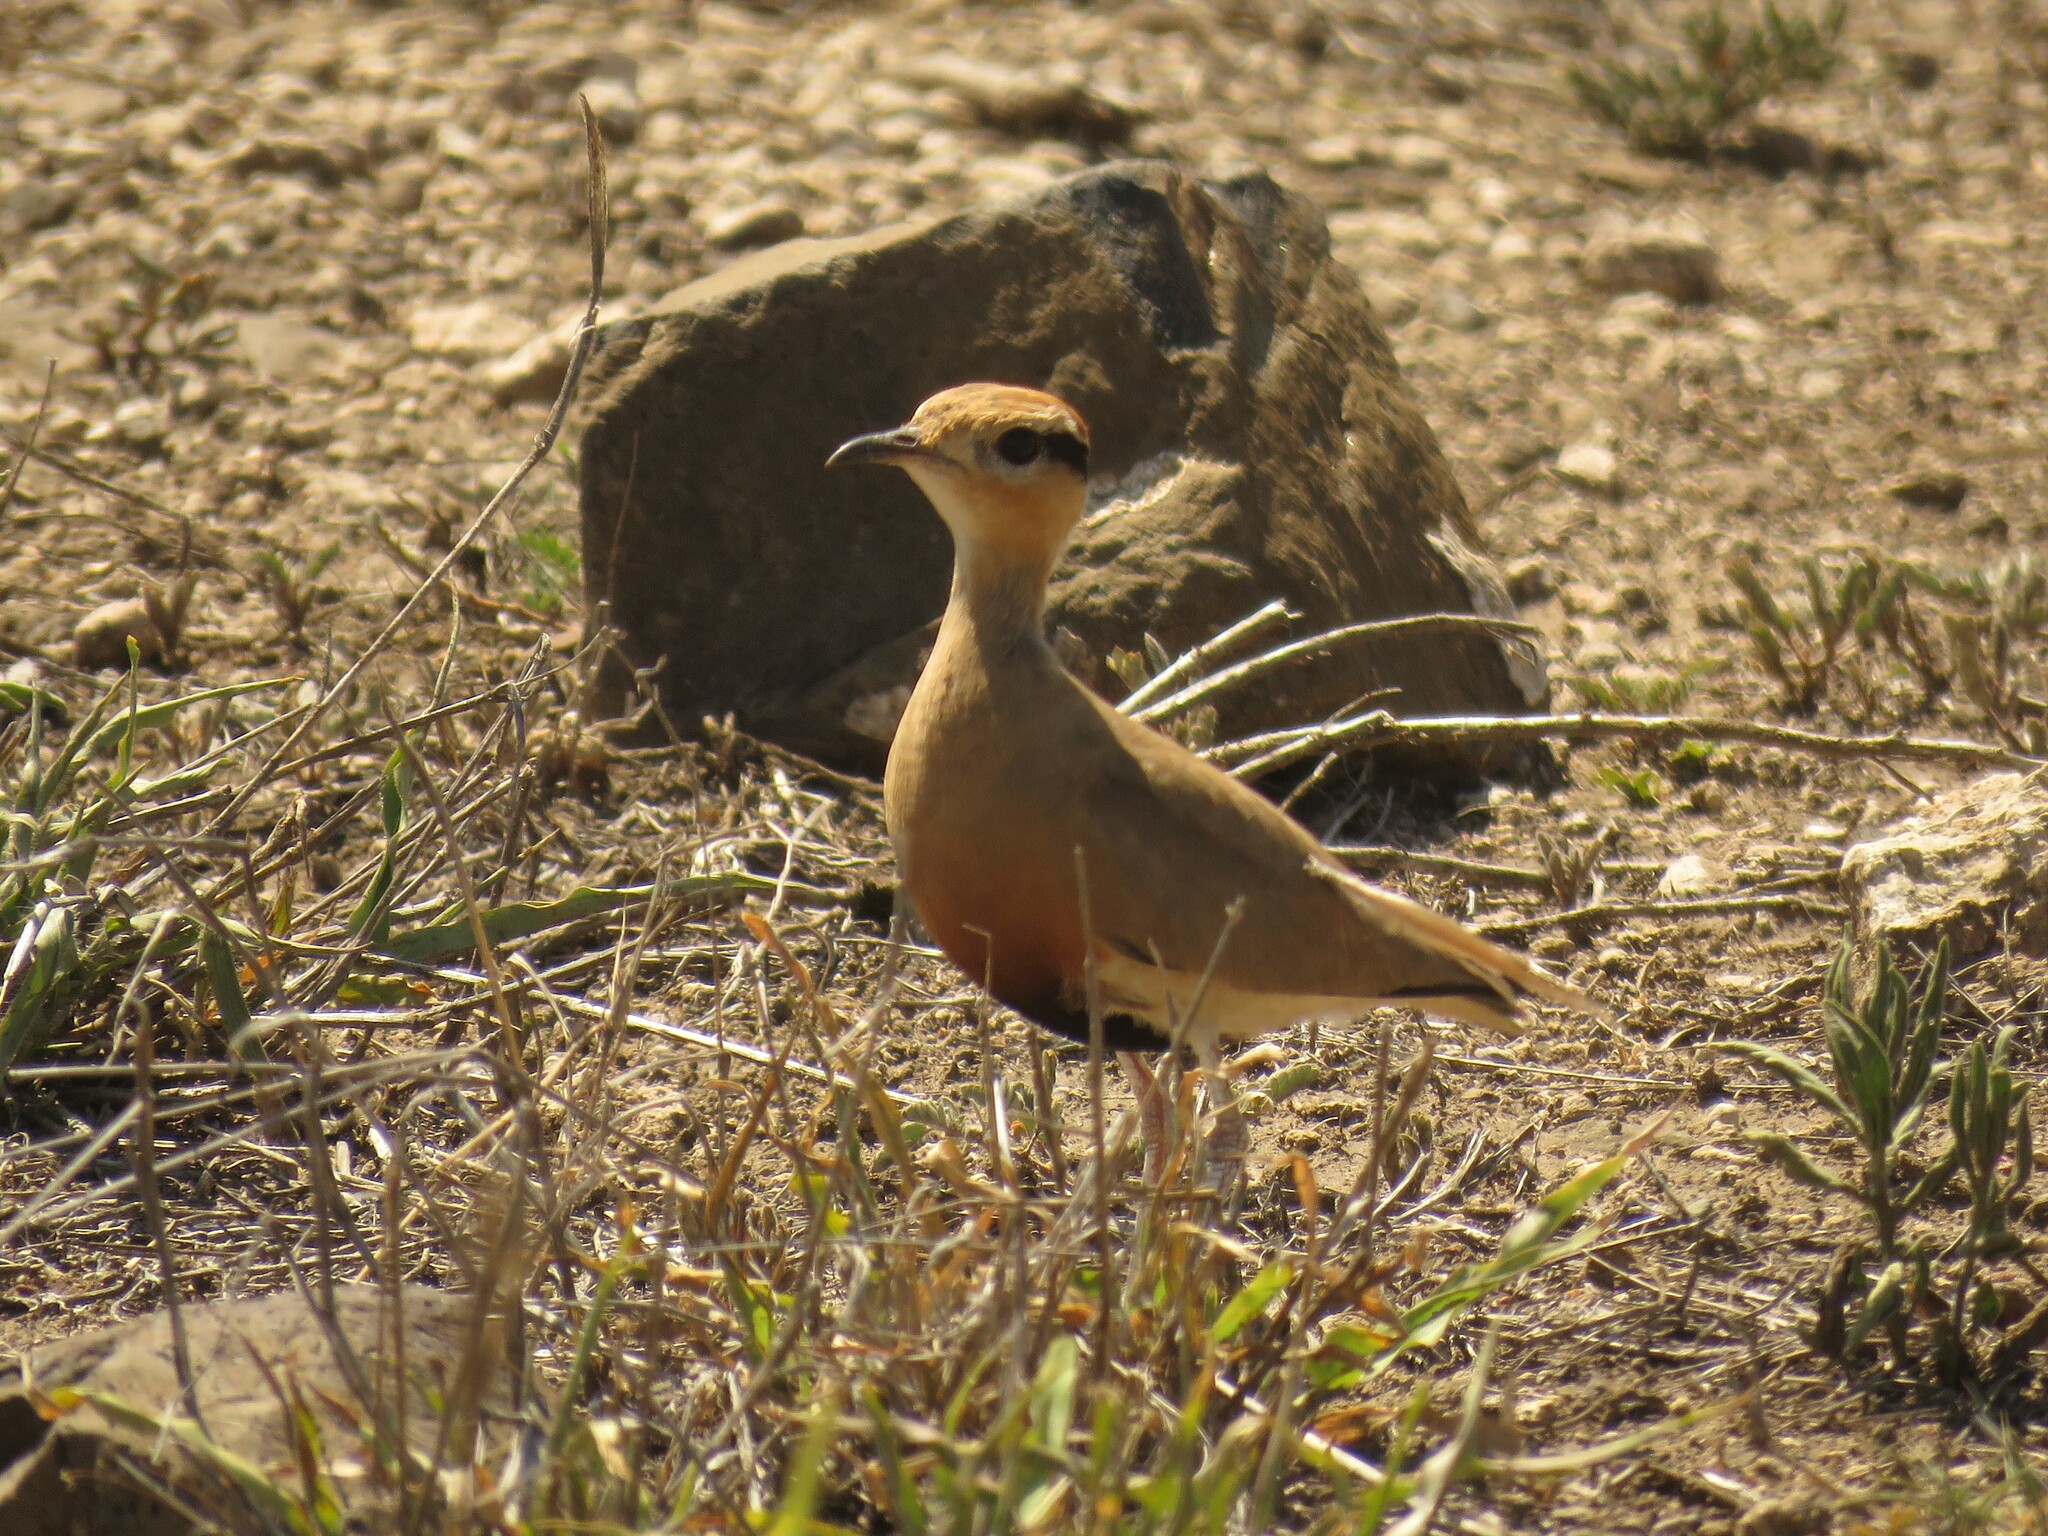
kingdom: Animalia
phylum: Chordata
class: Aves
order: Charadriiformes
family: Glareolidae
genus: Cursorius
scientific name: Cursorius temminckii
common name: Temminck's courser
